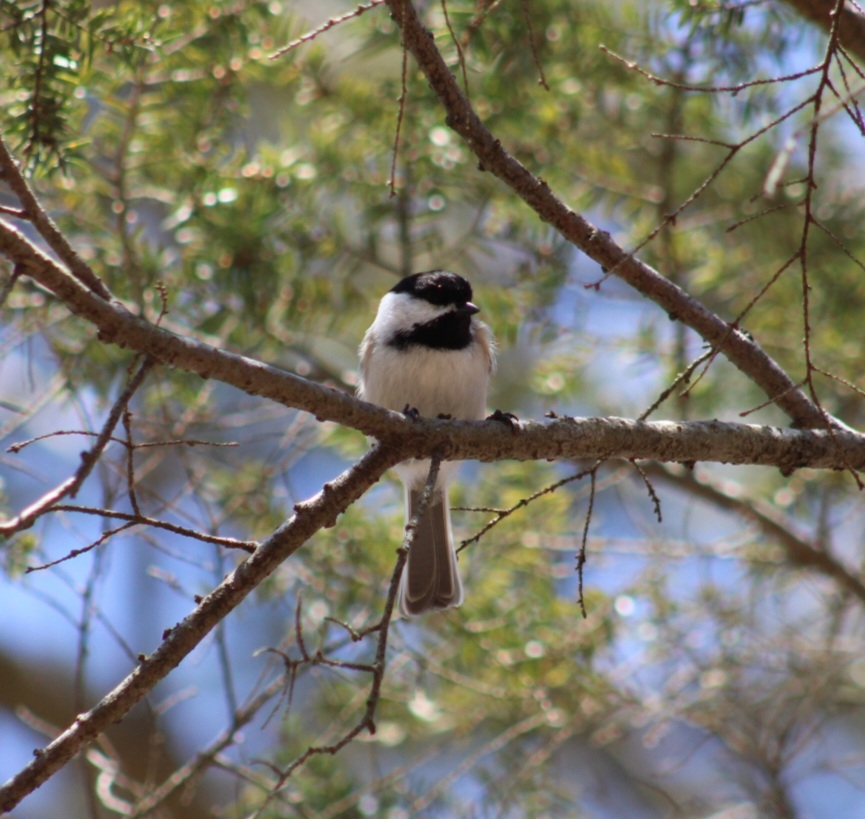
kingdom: Animalia
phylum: Chordata
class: Aves
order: Passeriformes
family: Paridae
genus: Poecile
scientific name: Poecile atricapillus
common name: Black-capped chickadee
